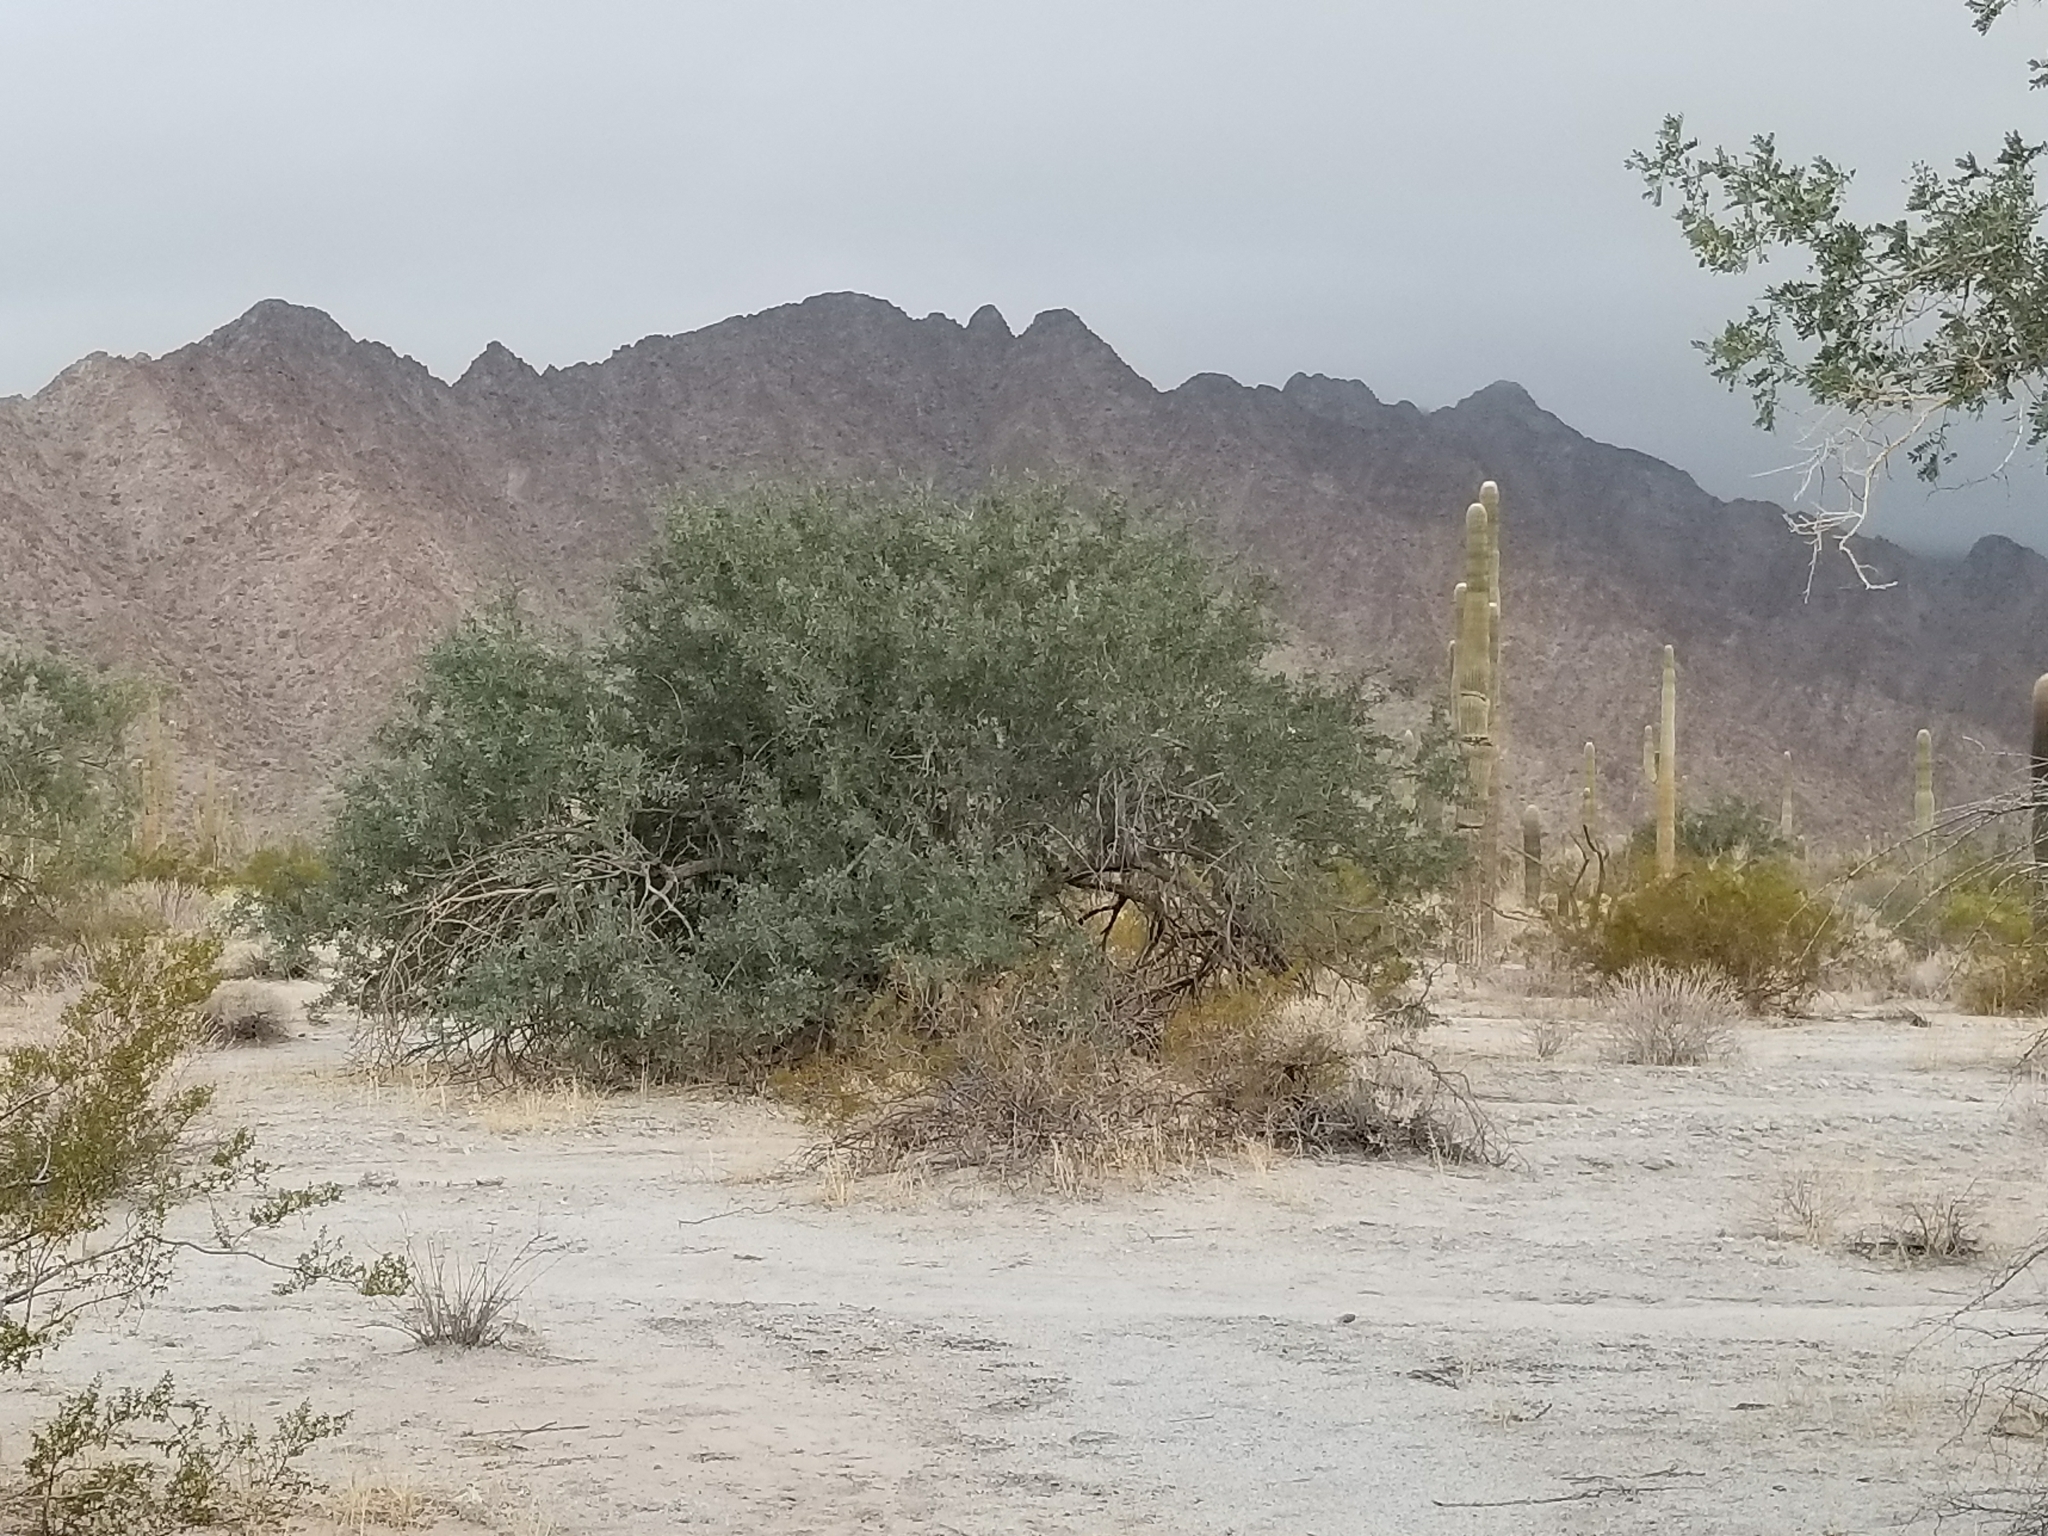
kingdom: Plantae
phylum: Tracheophyta
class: Magnoliopsida
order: Fabales
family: Fabaceae
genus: Olneya
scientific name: Olneya tesota
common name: Desert ironwood
